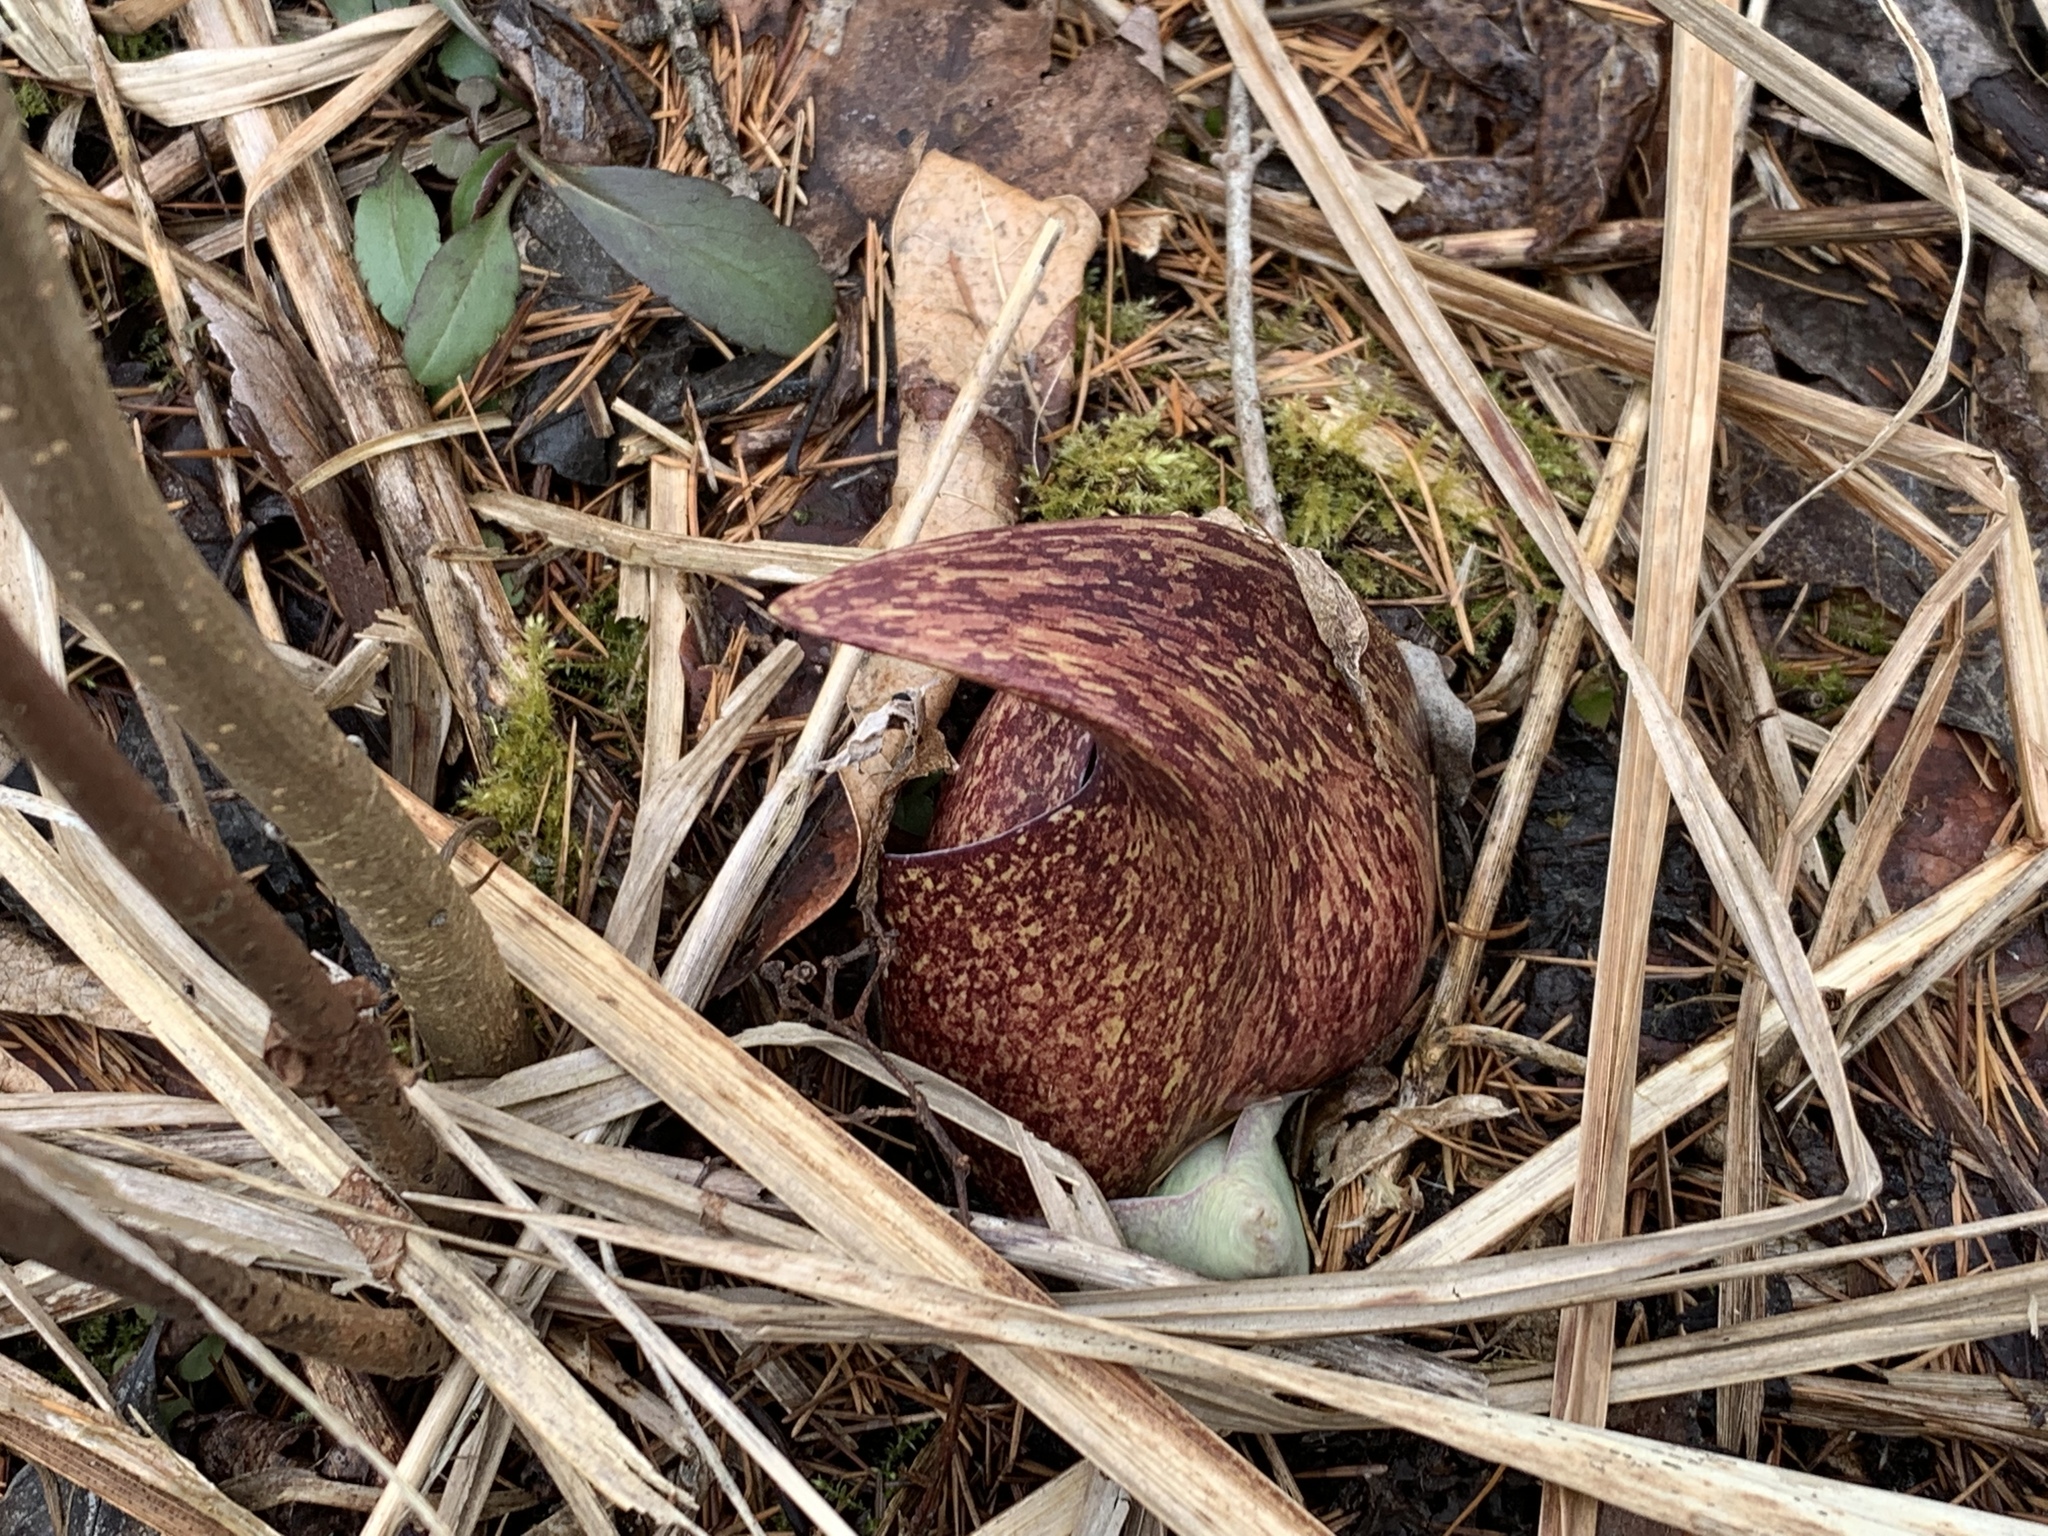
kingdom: Plantae
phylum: Tracheophyta
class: Liliopsida
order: Alismatales
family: Araceae
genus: Symplocarpus
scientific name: Symplocarpus foetidus
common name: Eastern skunk cabbage
